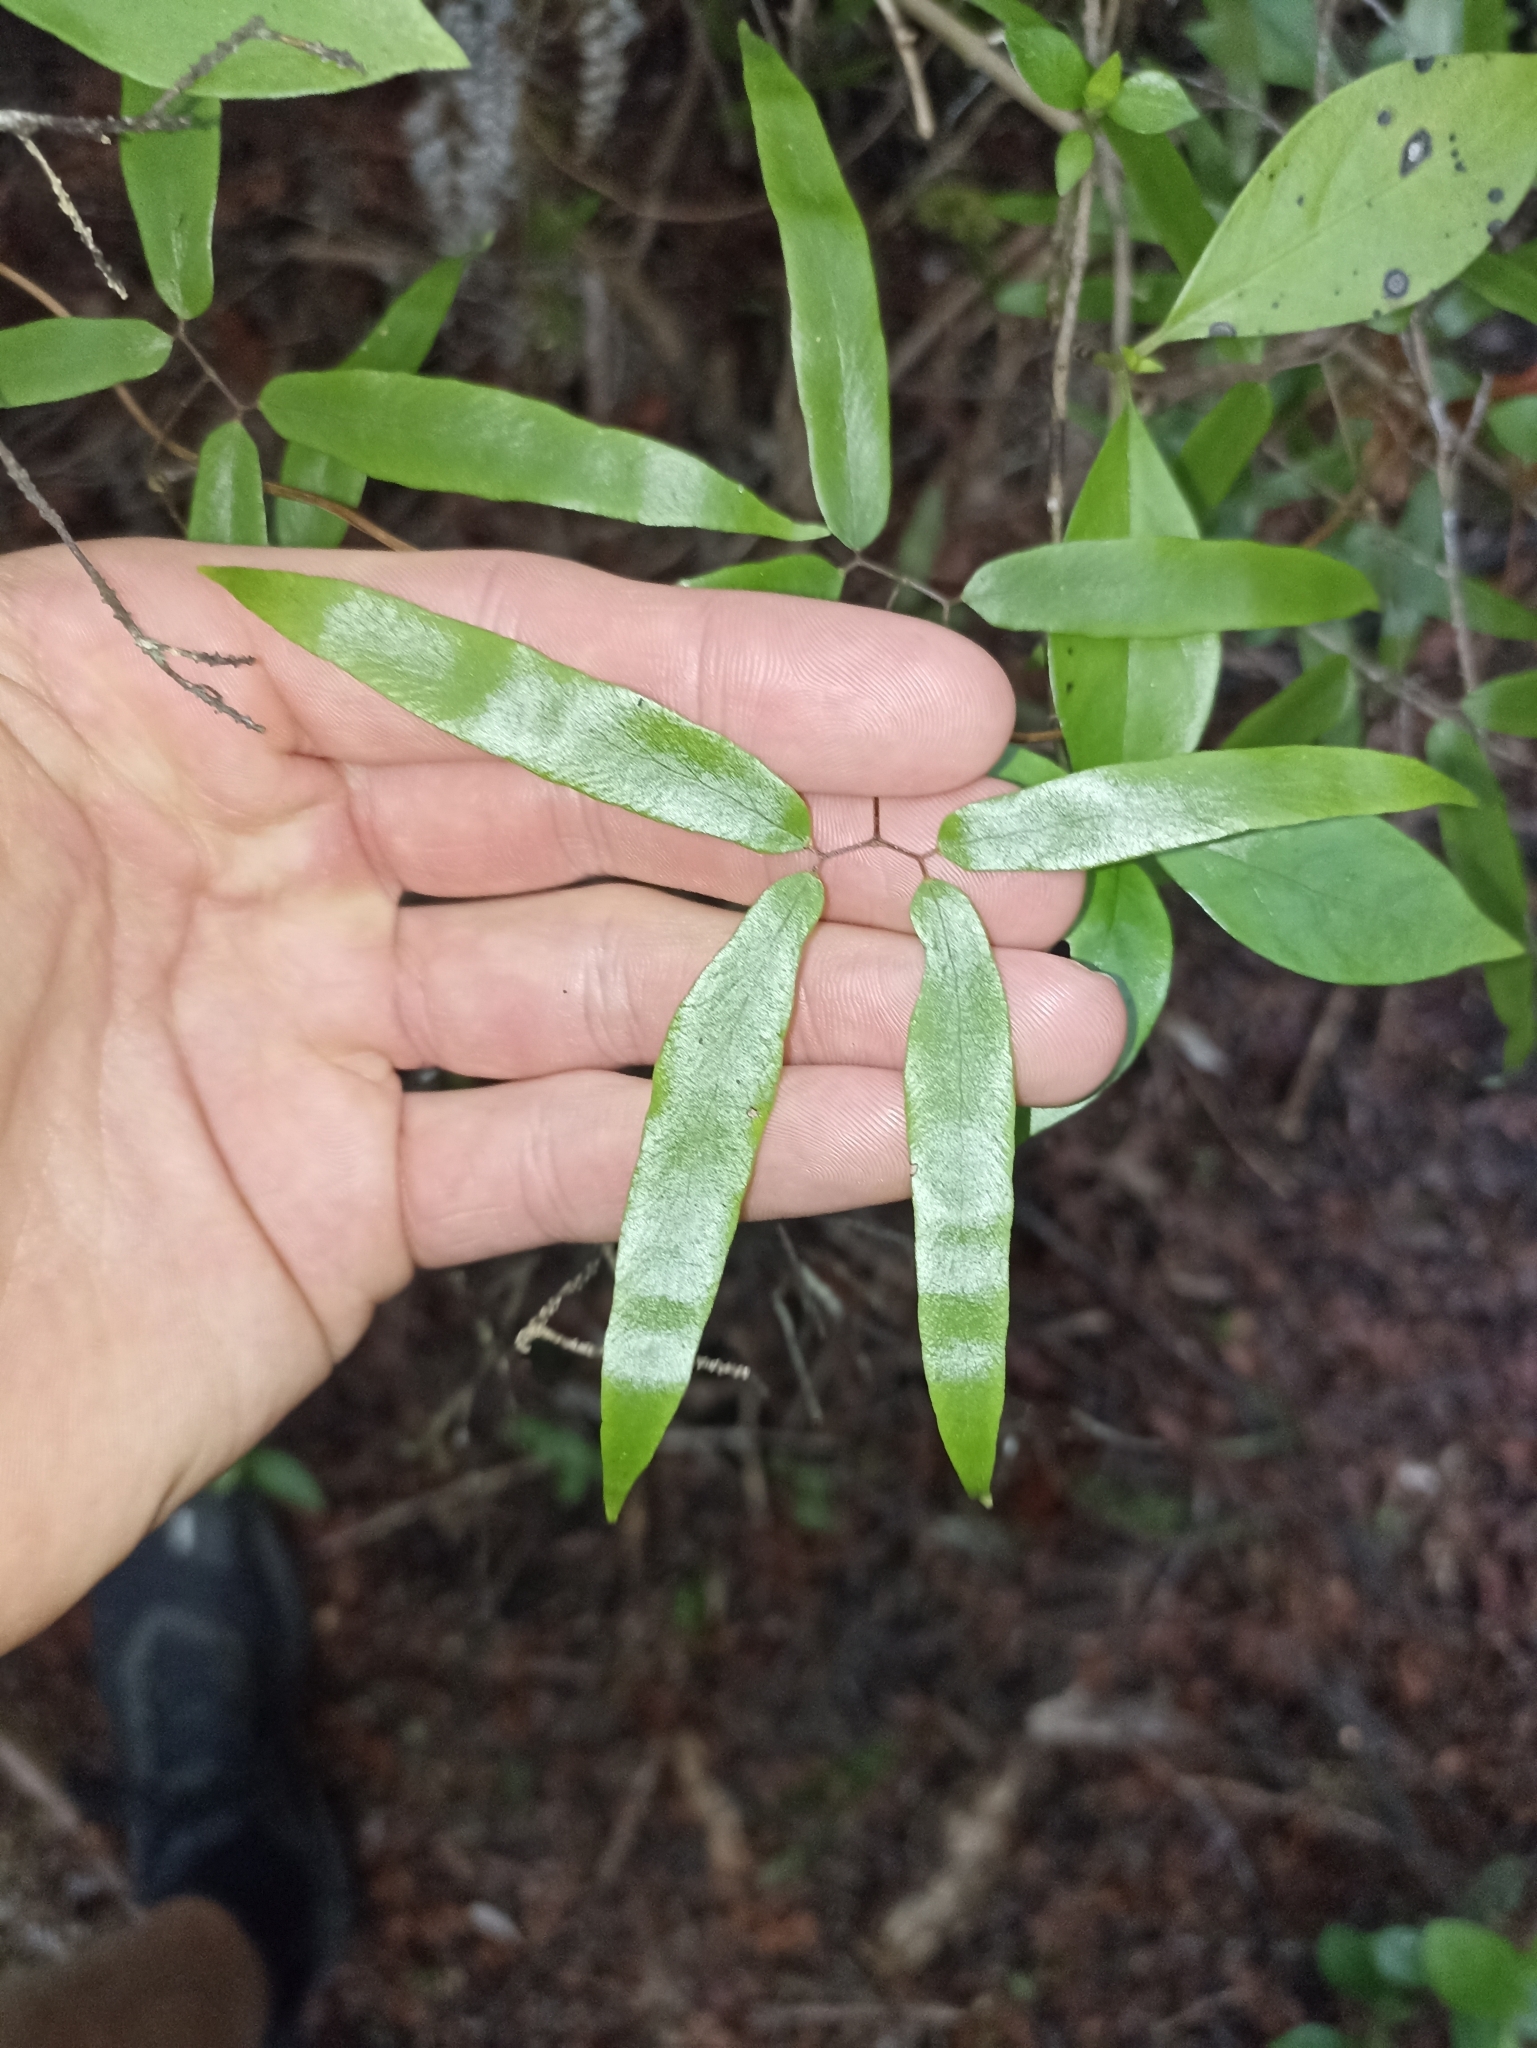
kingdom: Plantae
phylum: Tracheophyta
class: Polypodiopsida
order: Schizaeales
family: Lygodiaceae
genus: Lygodium
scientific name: Lygodium articulatum
